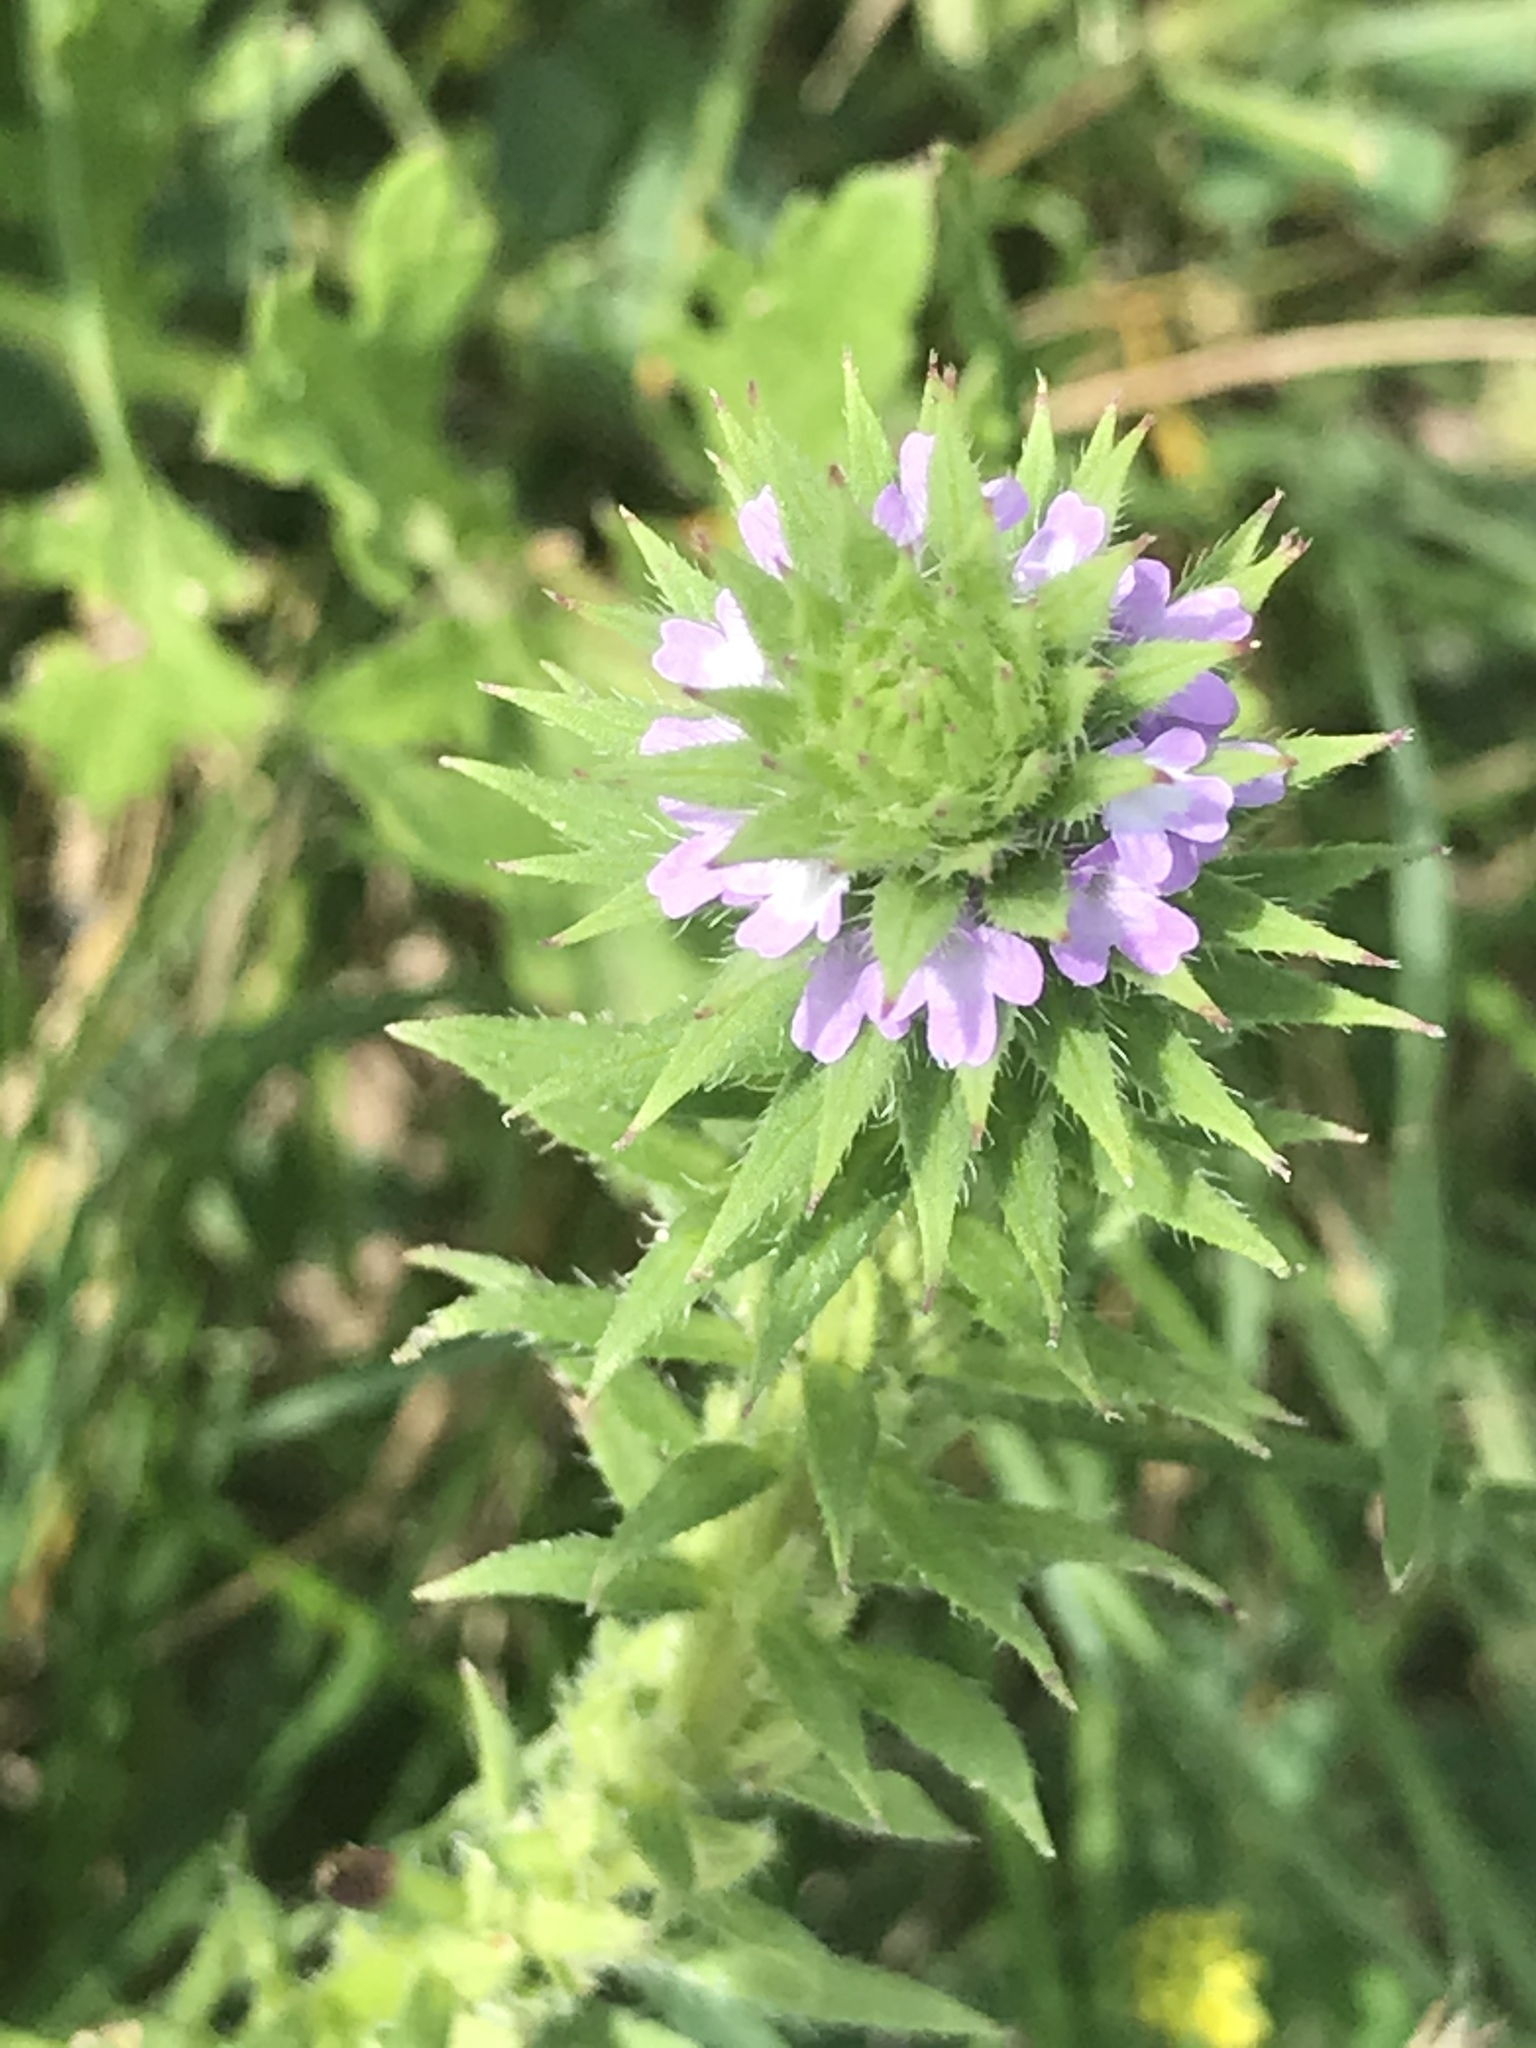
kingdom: Plantae
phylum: Tracheophyta
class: Magnoliopsida
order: Lamiales
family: Verbenaceae
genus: Verbena
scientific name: Verbena bracteata
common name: Bracted vervain
